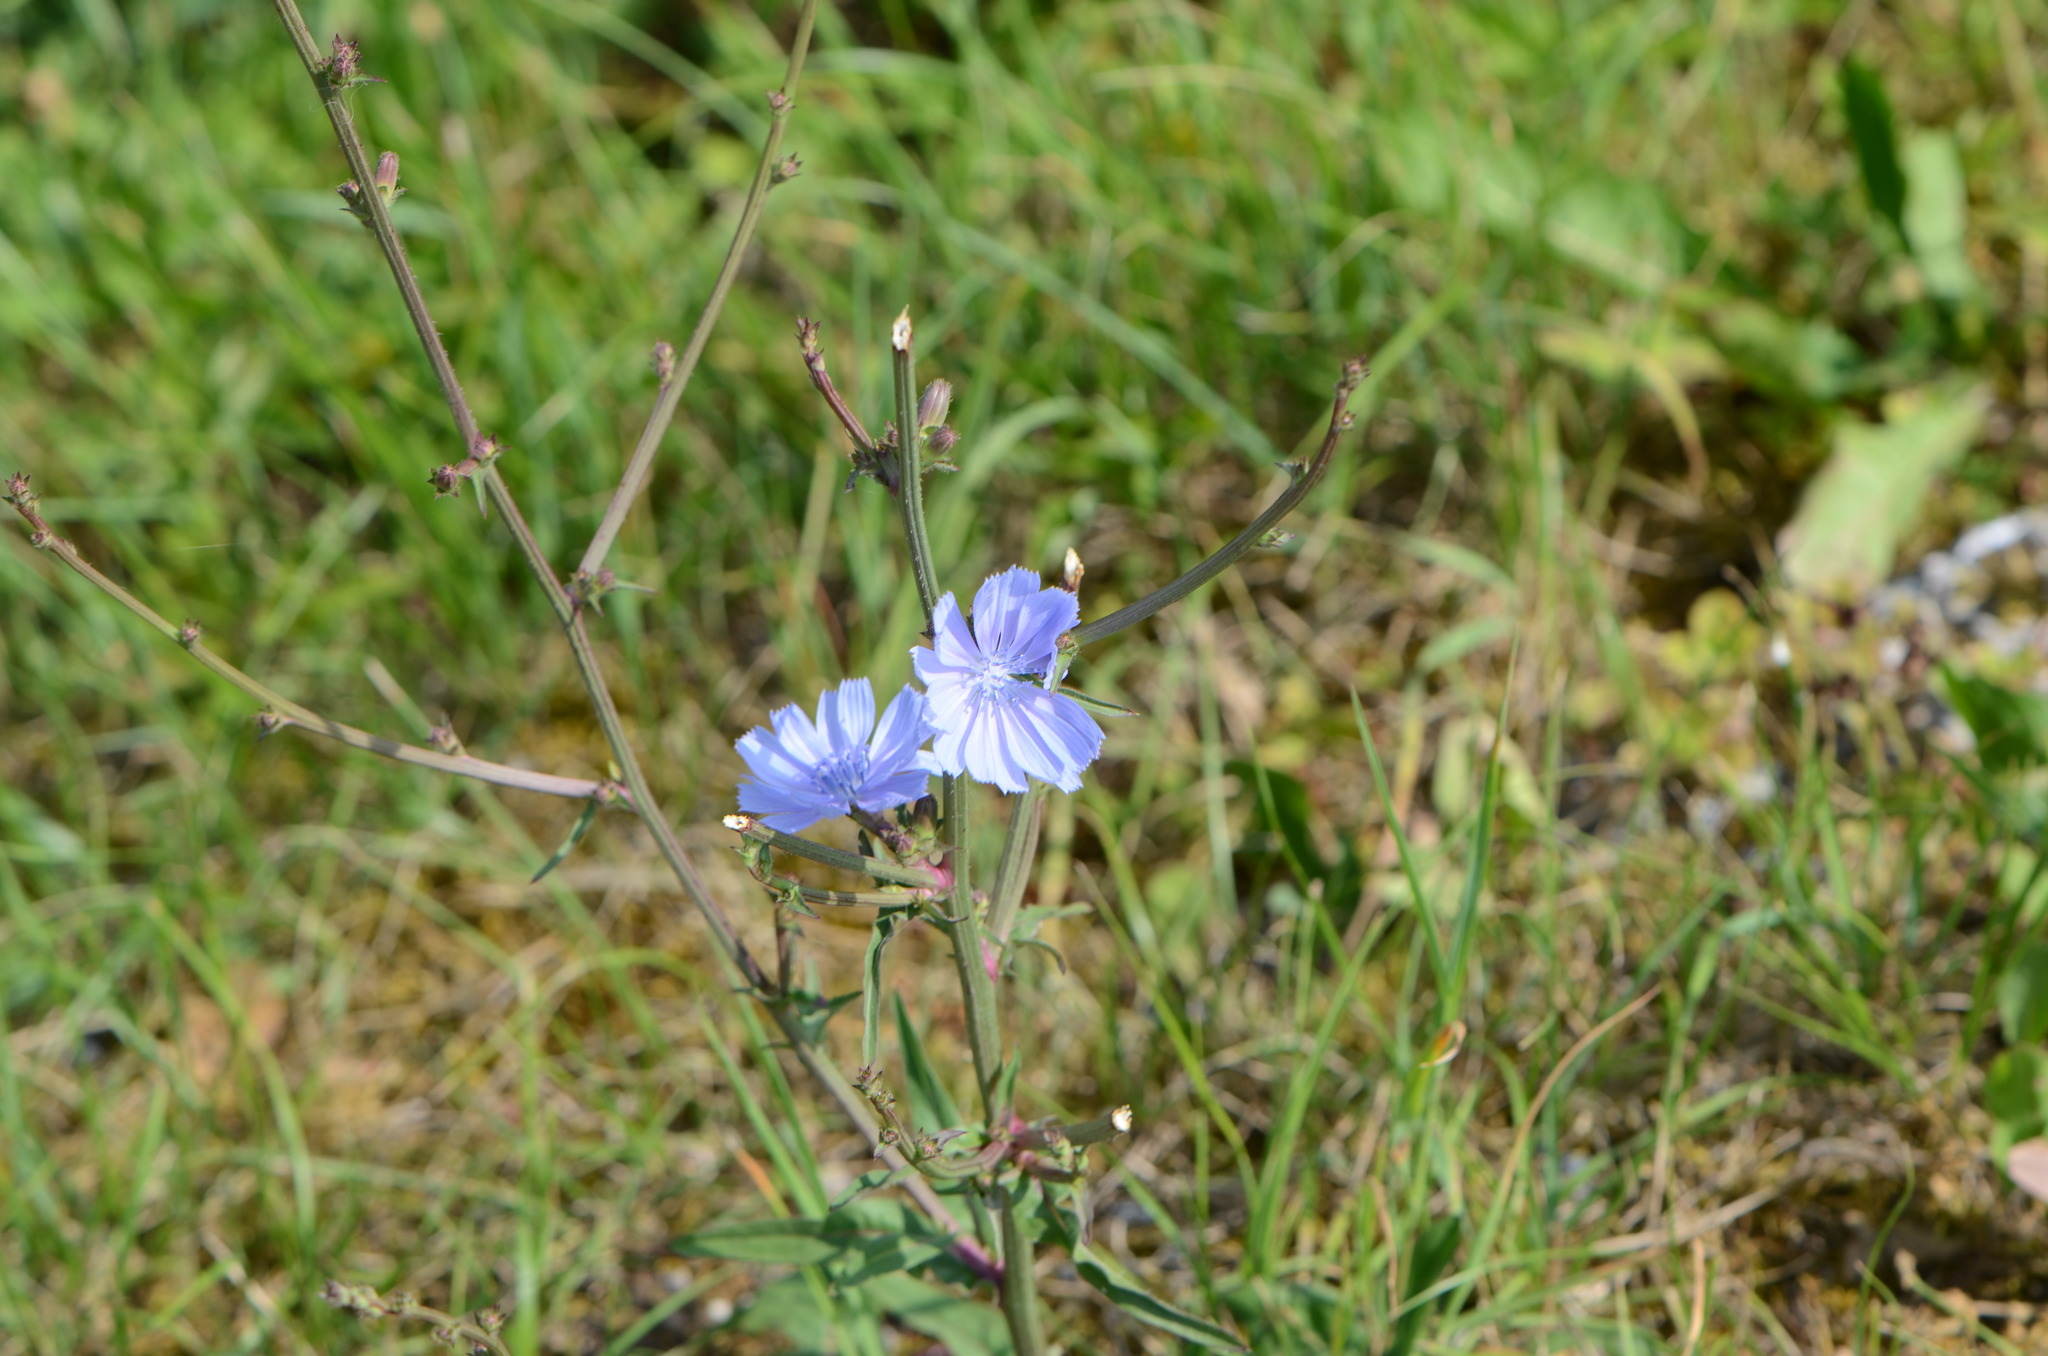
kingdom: Plantae
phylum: Tracheophyta
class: Magnoliopsida
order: Asterales
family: Asteraceae
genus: Cichorium
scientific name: Cichorium intybus
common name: Chicory
